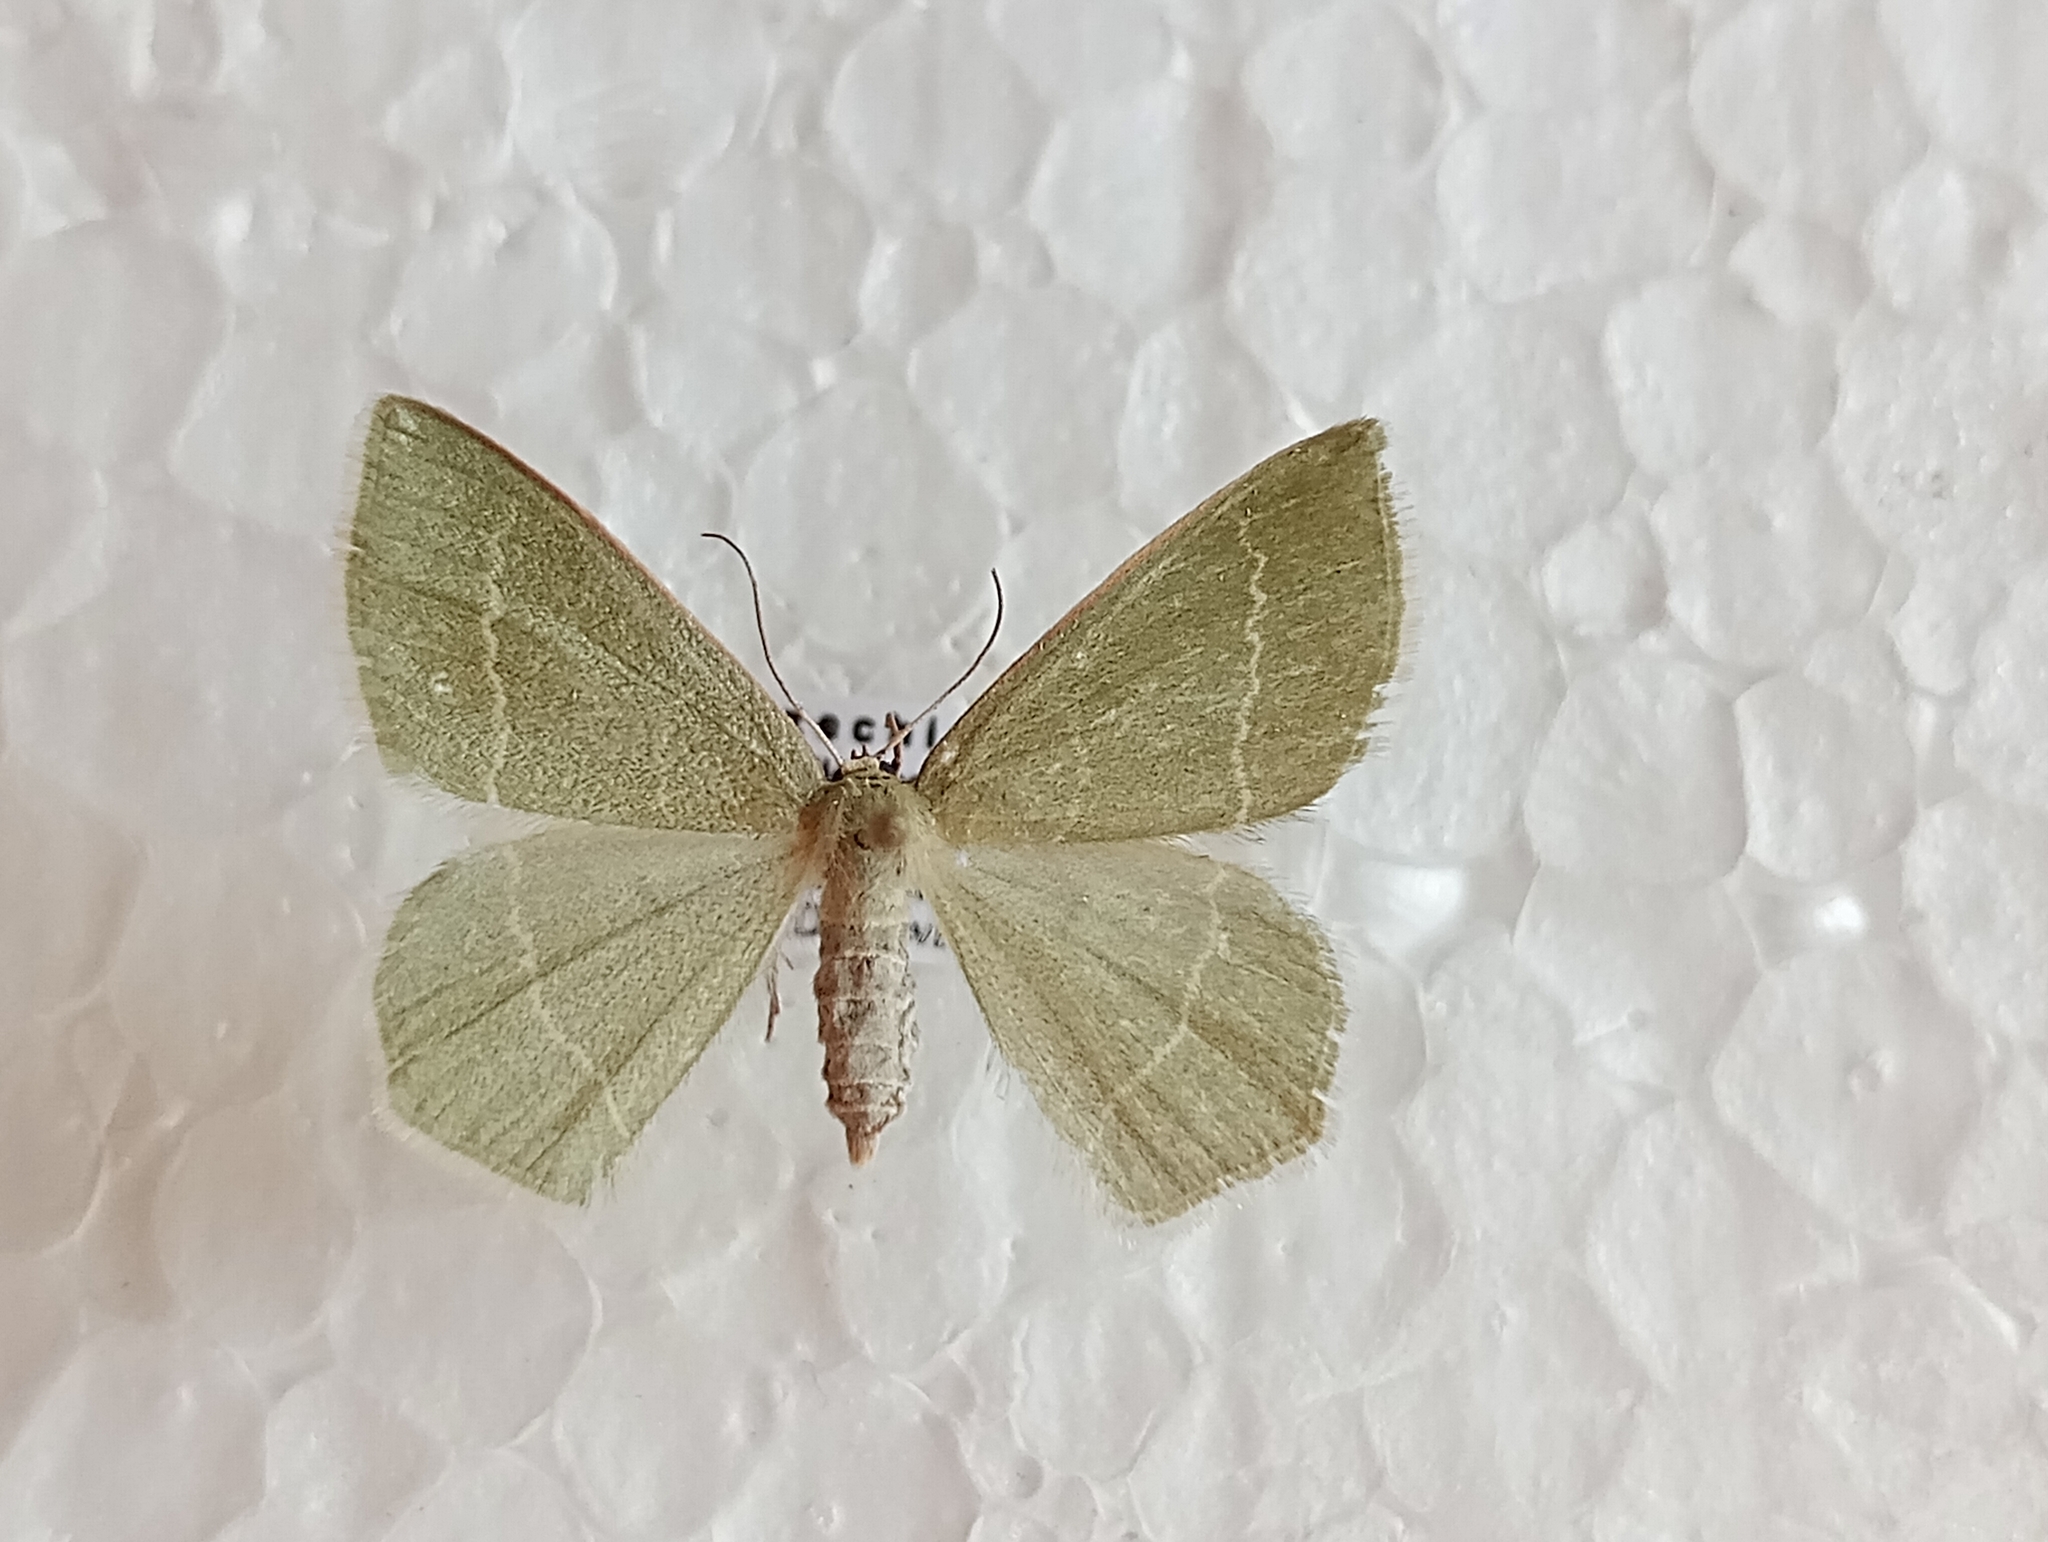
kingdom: Animalia
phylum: Arthropoda
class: Insecta
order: Lepidoptera
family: Geometridae
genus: Chlorissa
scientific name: Chlorissa cloraria
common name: Southern grass emerald
